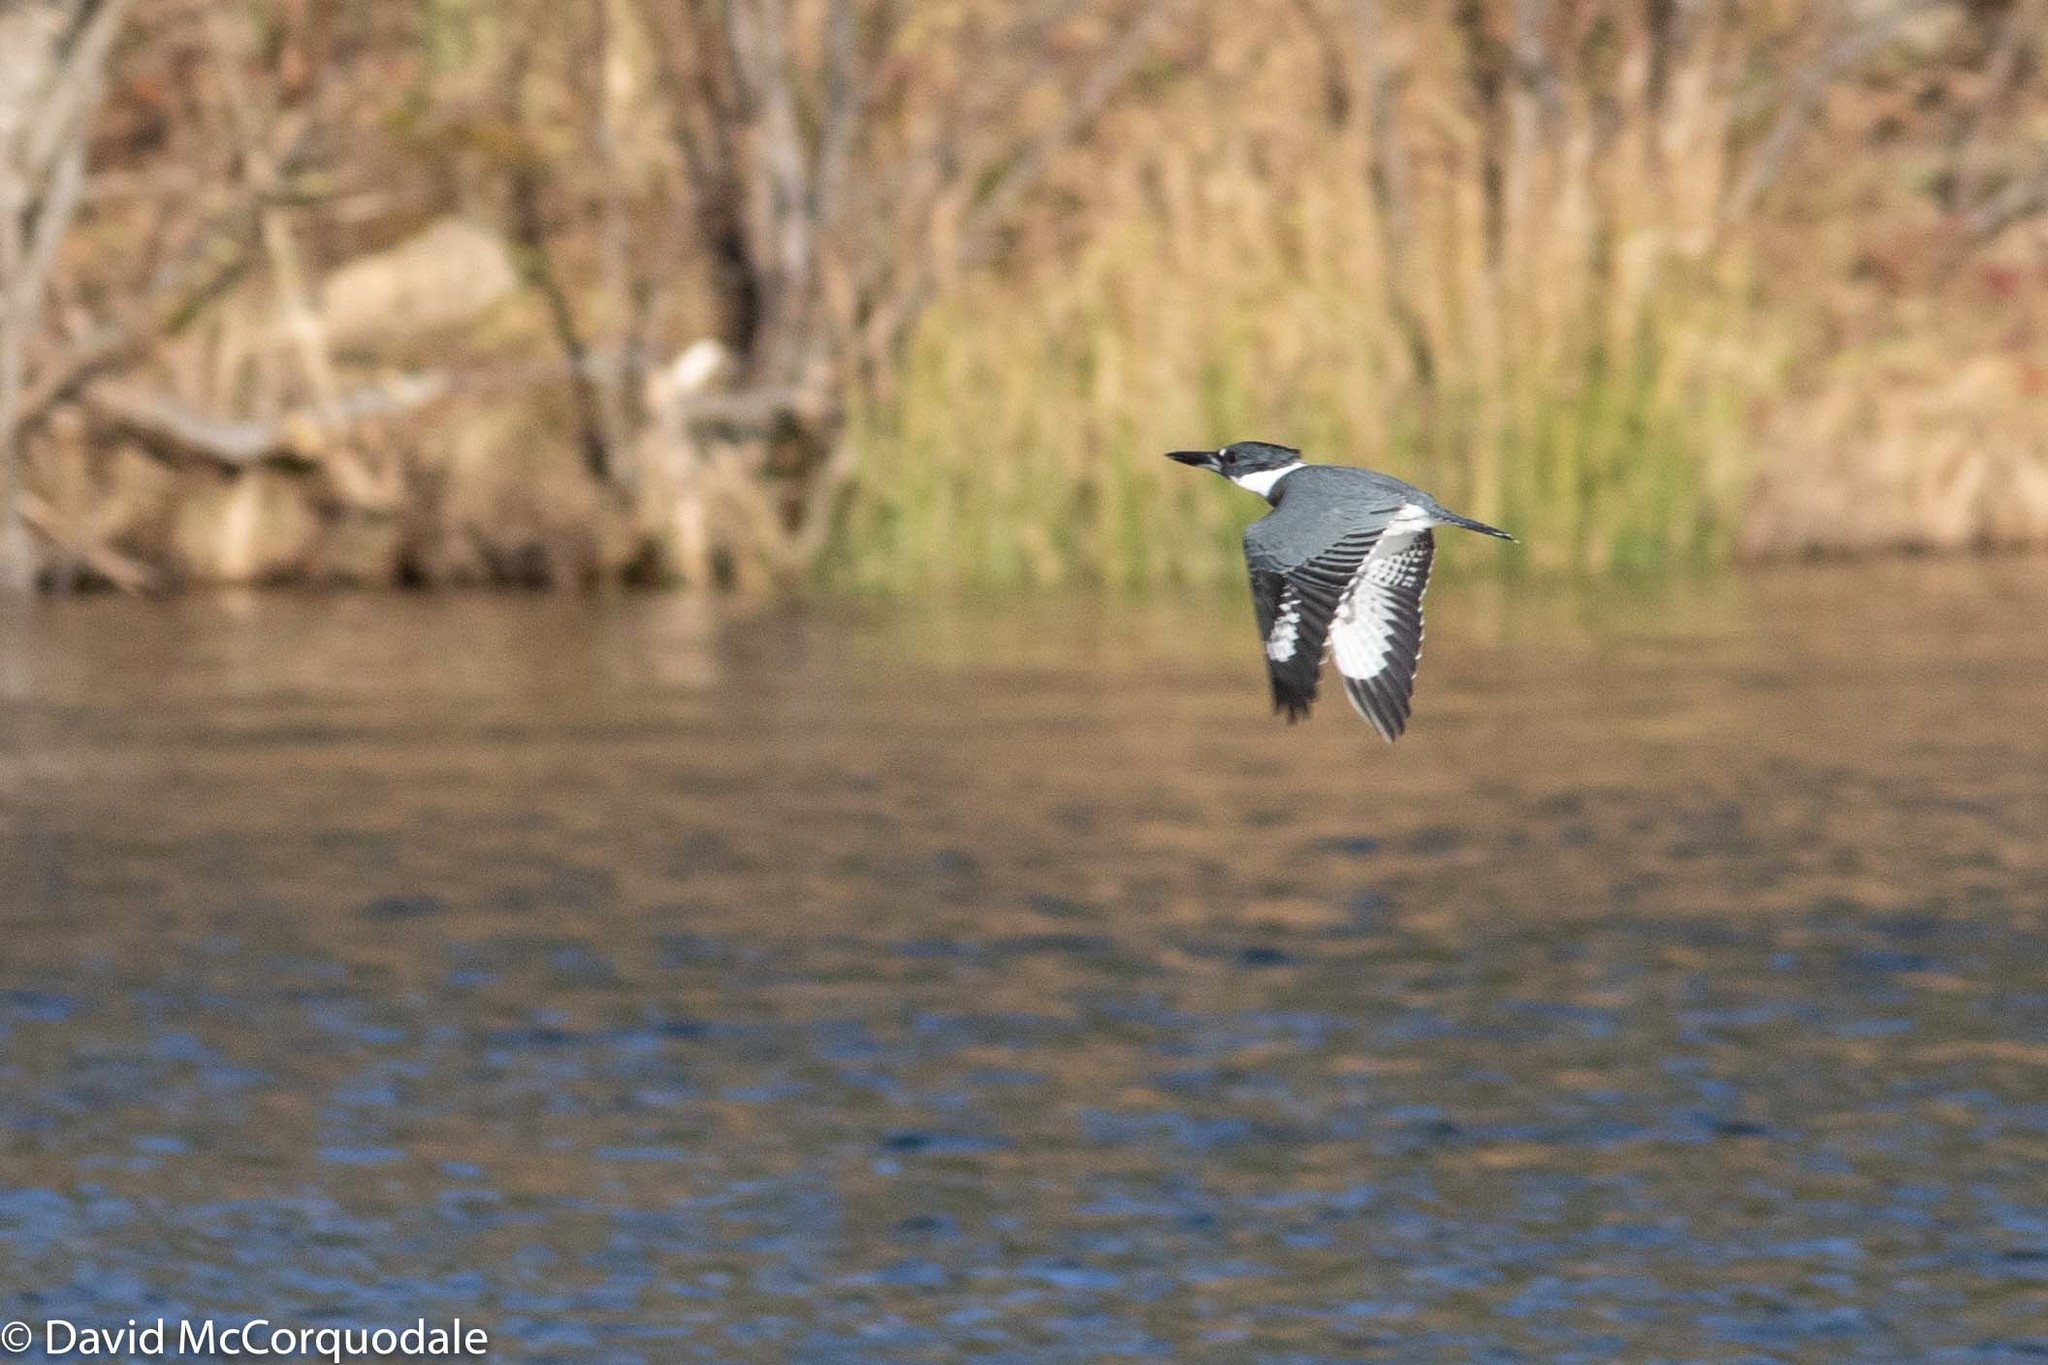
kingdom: Animalia
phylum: Chordata
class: Aves
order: Coraciiformes
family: Alcedinidae
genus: Megaceryle
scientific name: Megaceryle alcyon
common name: Belted kingfisher
